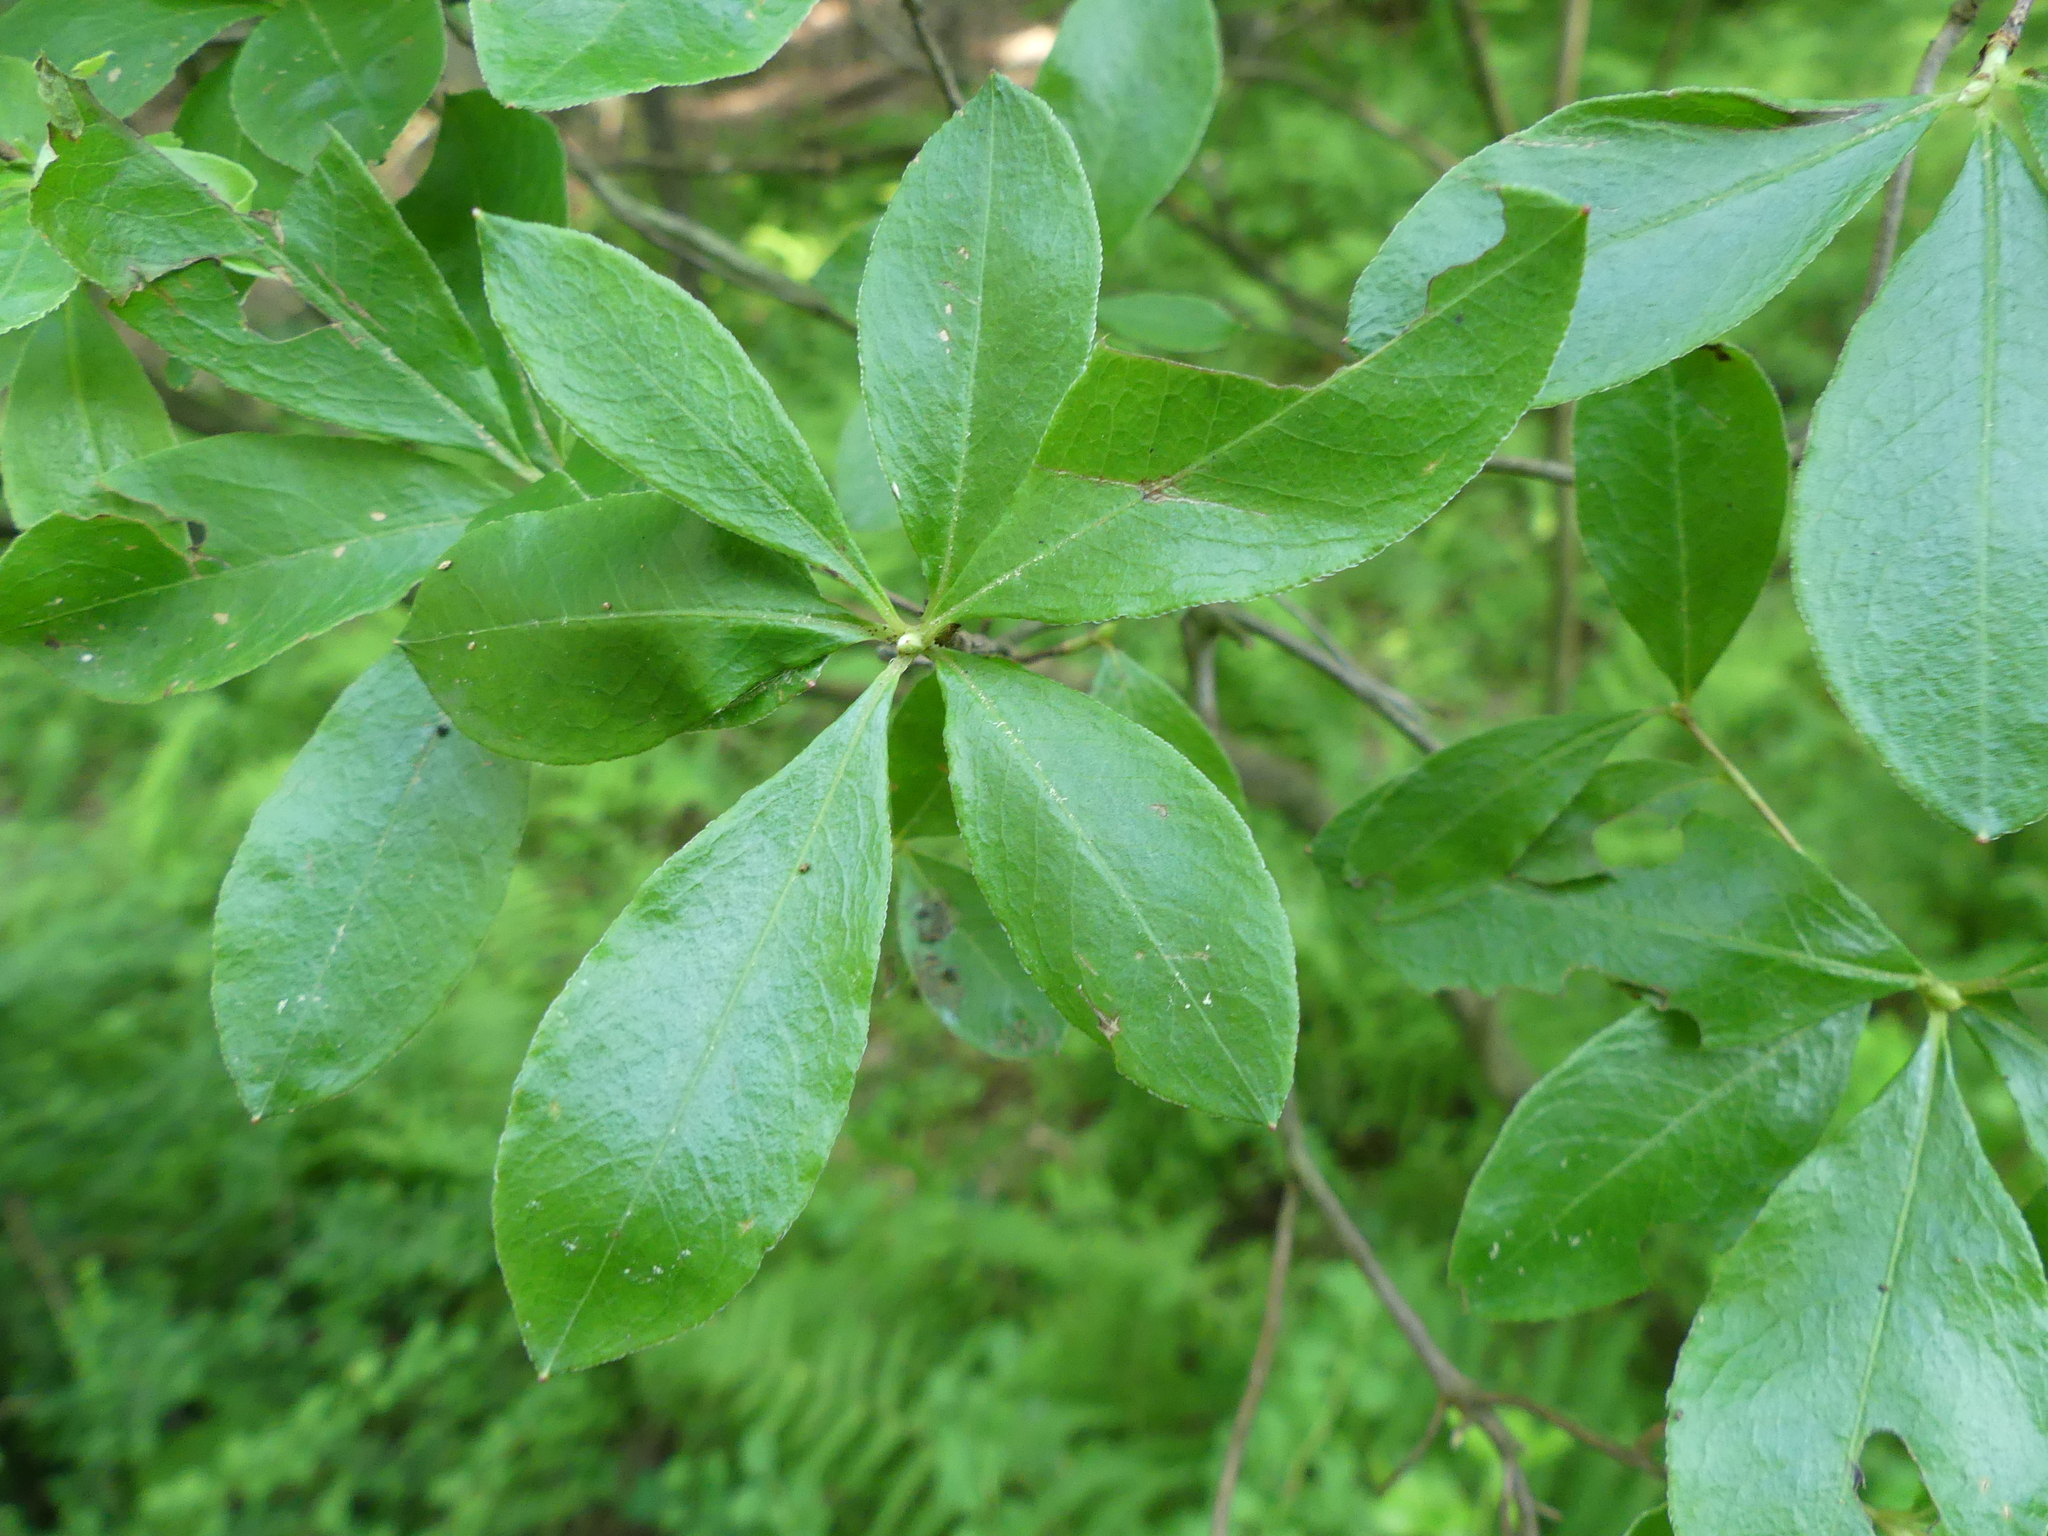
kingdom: Plantae
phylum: Tracheophyta
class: Magnoliopsida
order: Ericales
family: Ericaceae
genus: Rhododendron
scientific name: Rhododendron viscosum
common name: Clammy azalea
